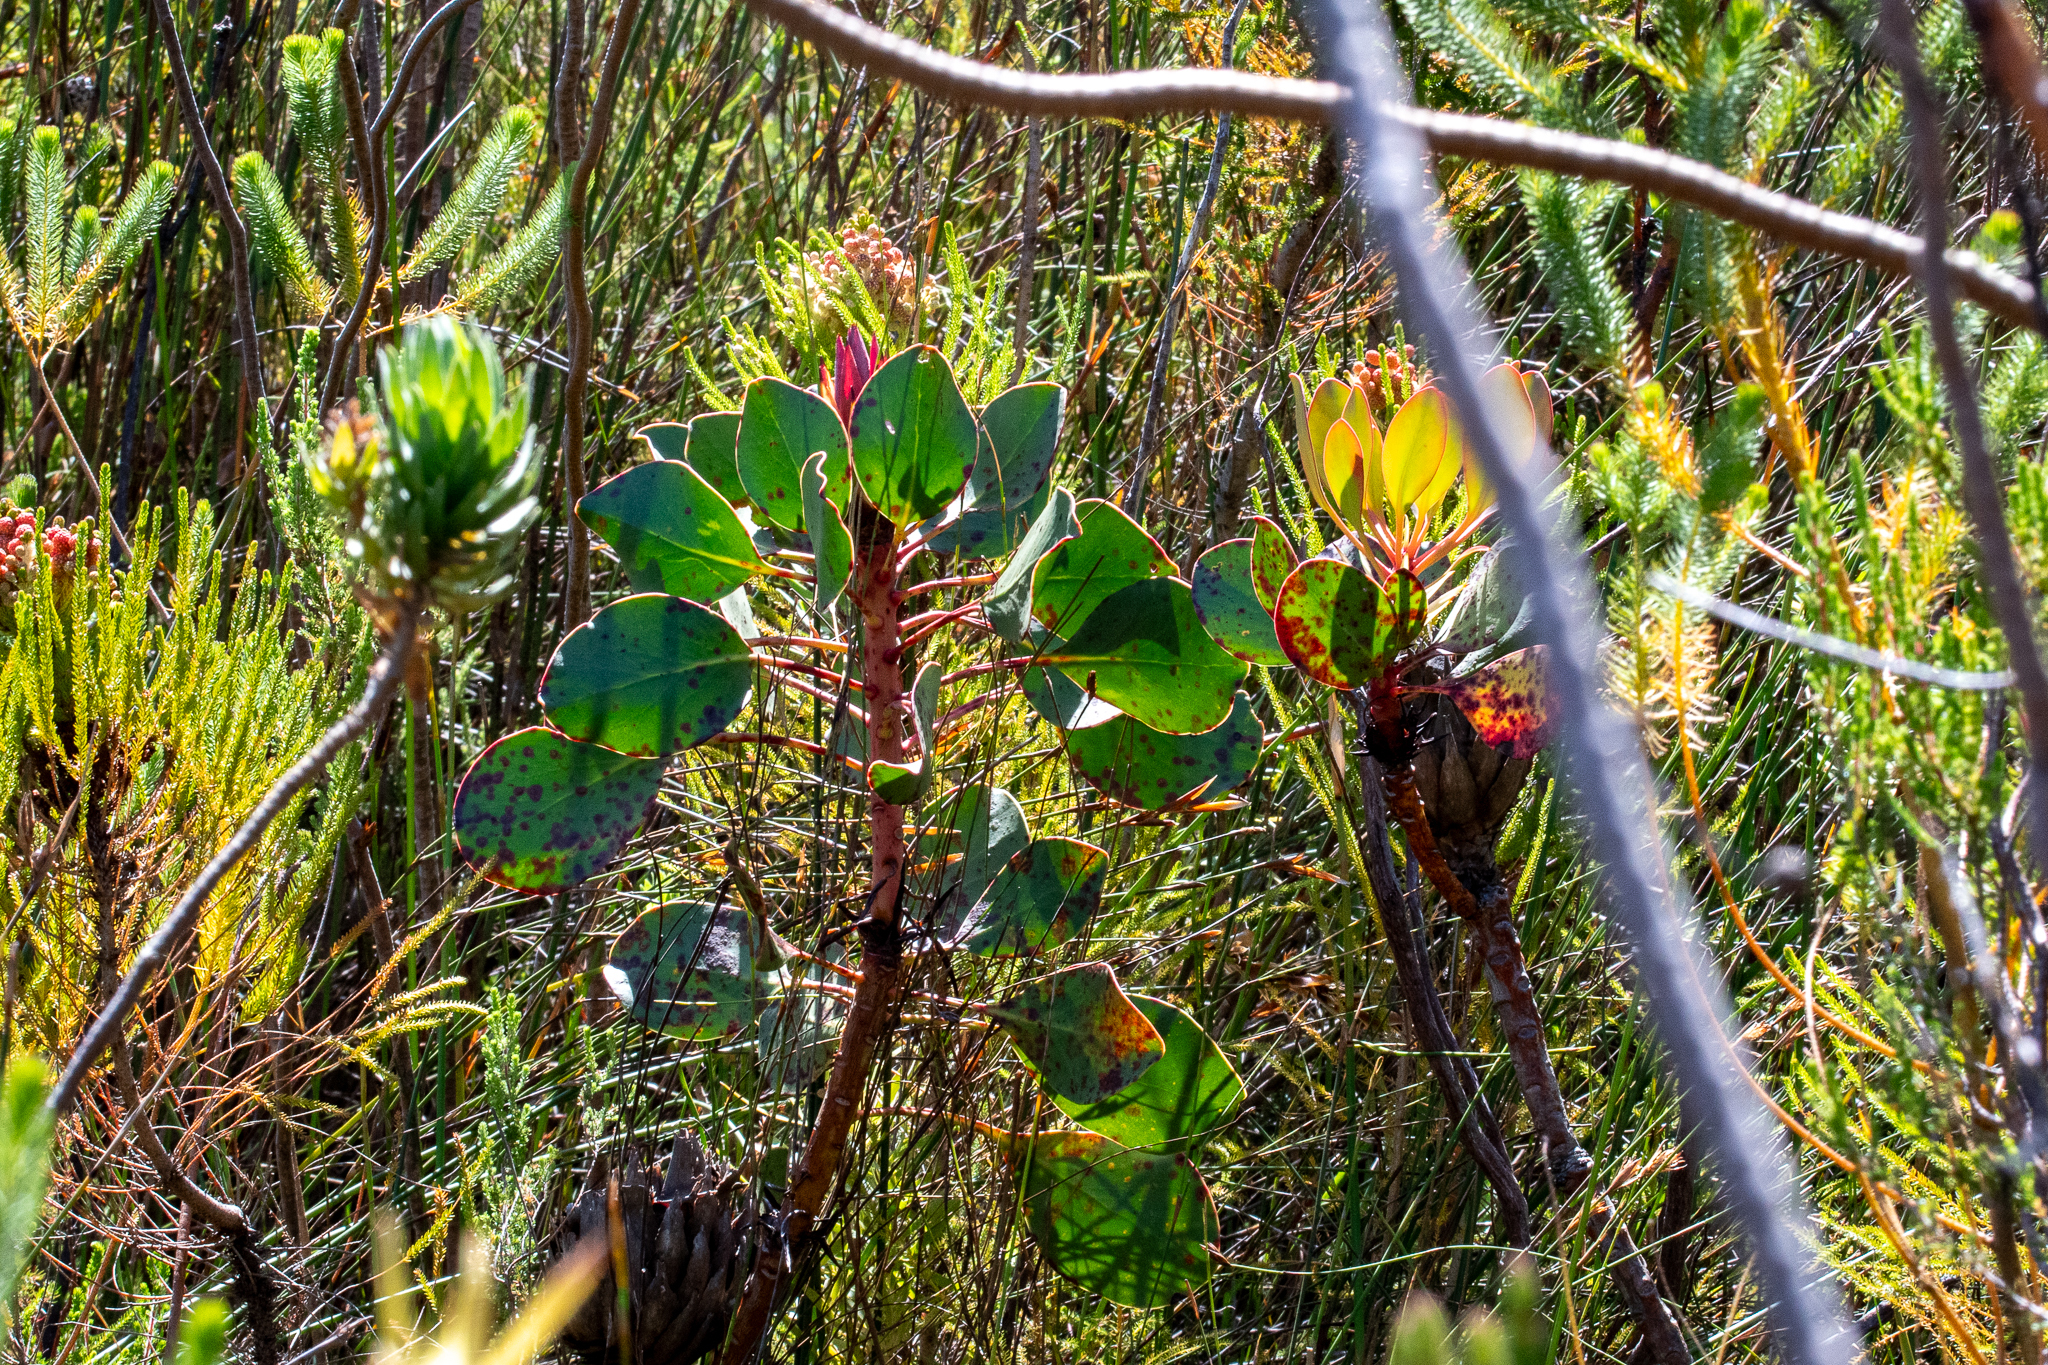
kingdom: Plantae
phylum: Tracheophyta
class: Magnoliopsida
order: Proteales
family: Proteaceae
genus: Protea
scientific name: Protea cynaroides
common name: King protea
